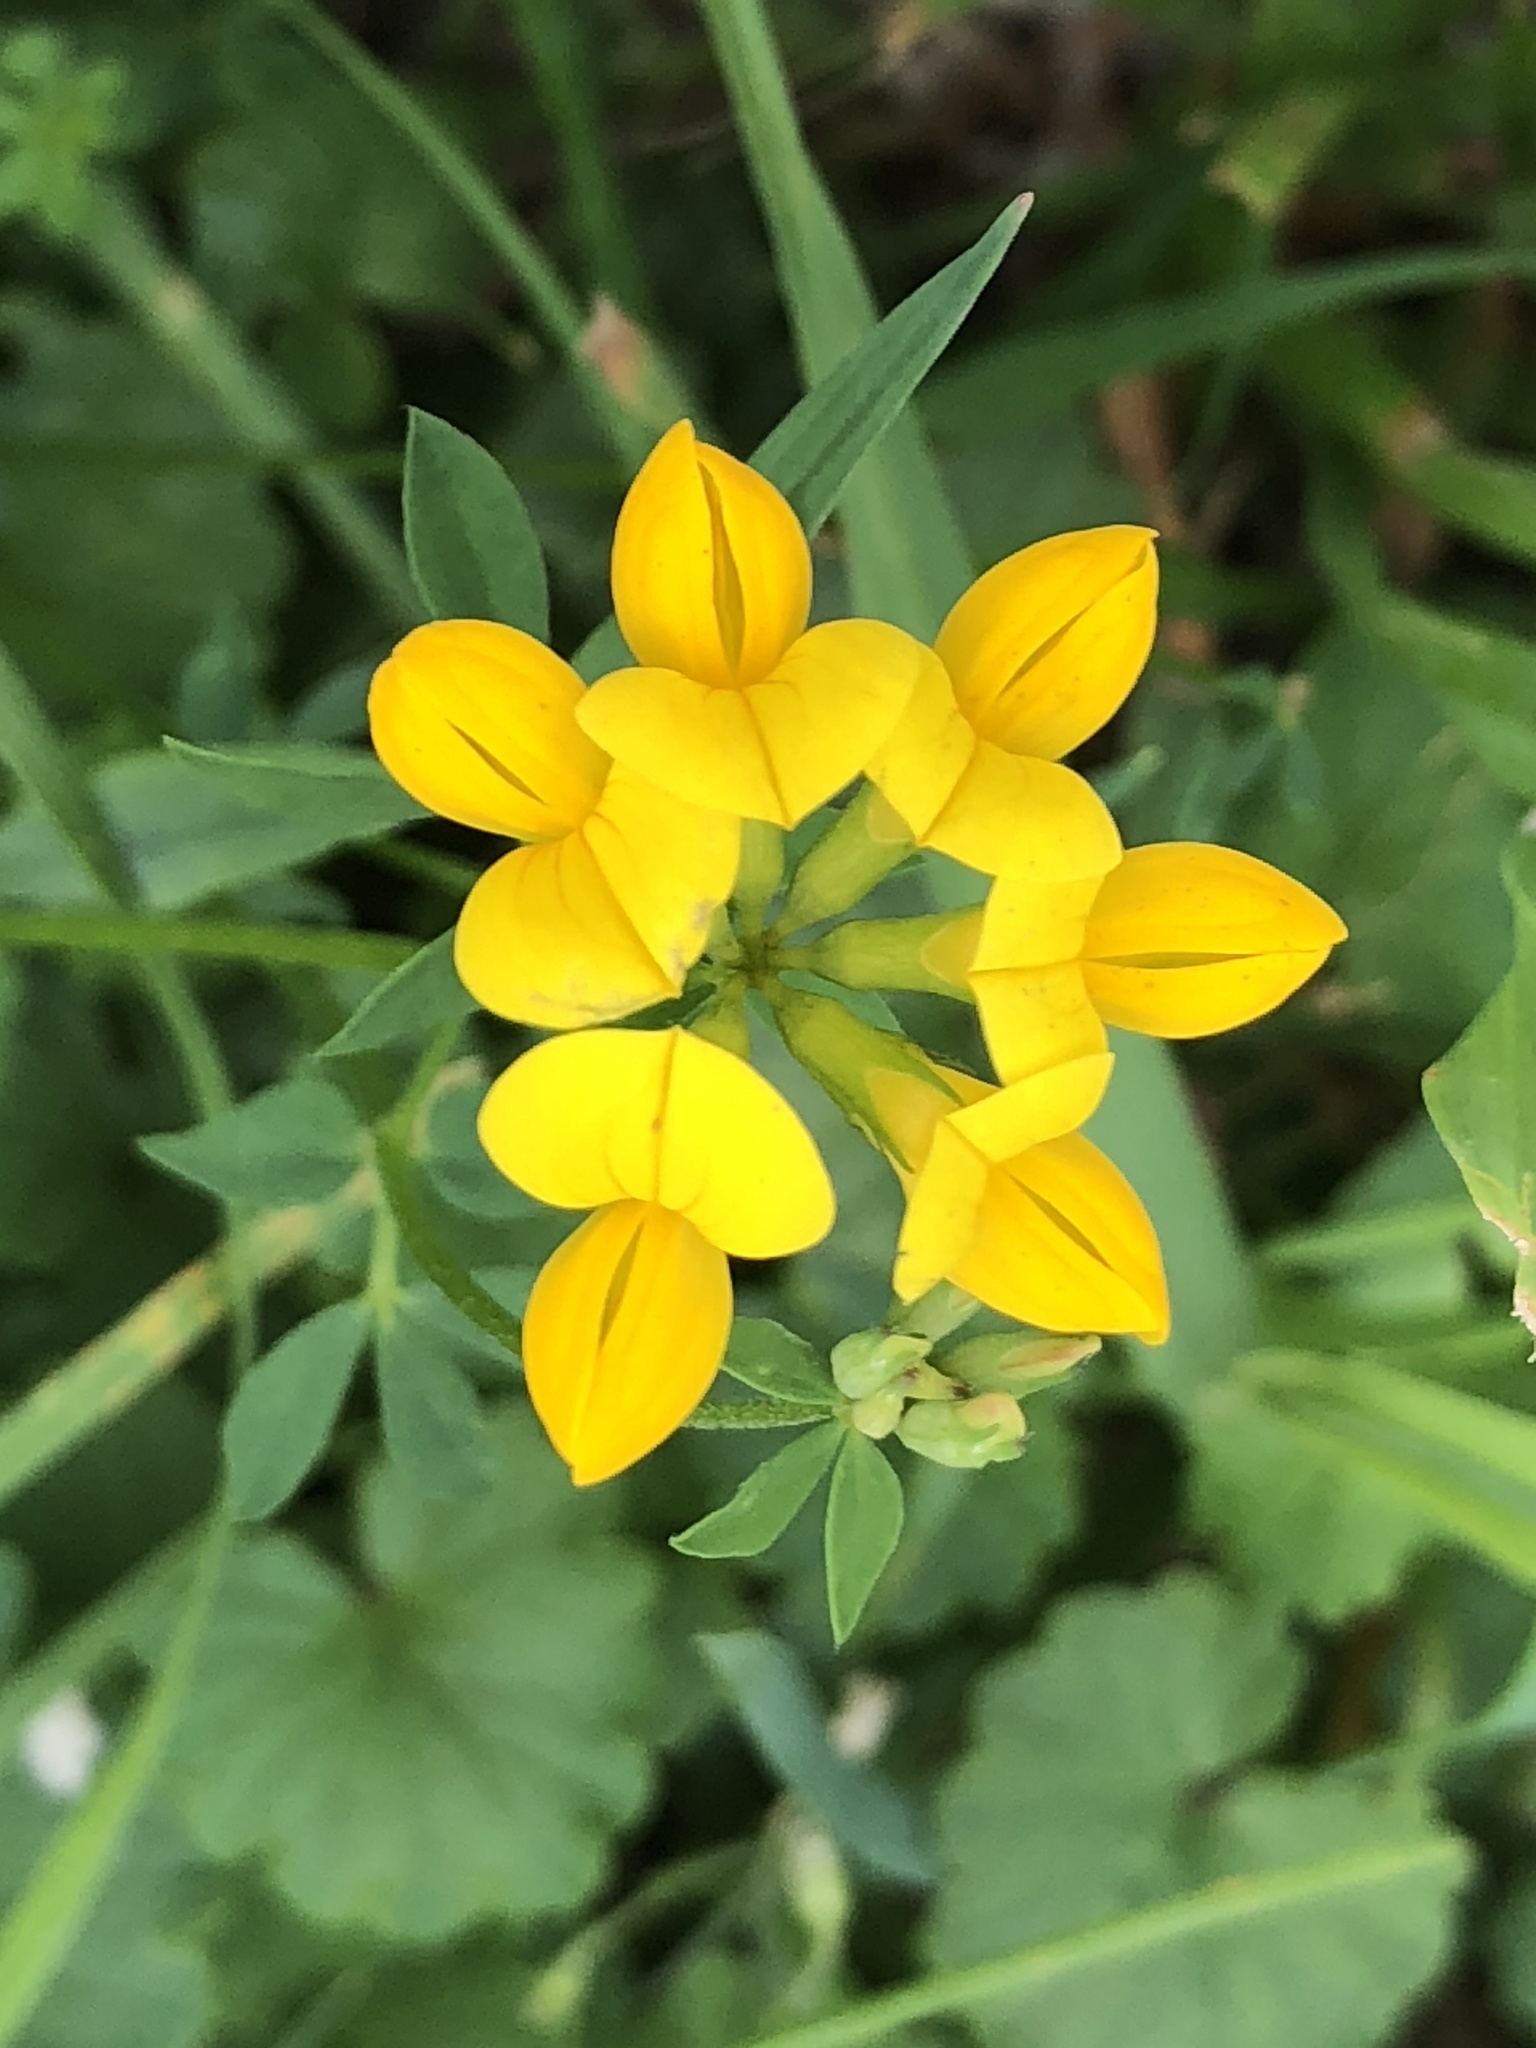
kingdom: Plantae
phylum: Tracheophyta
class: Magnoliopsida
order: Fabales
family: Fabaceae
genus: Lotus
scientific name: Lotus corniculatus
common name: Common bird's-foot-trefoil
